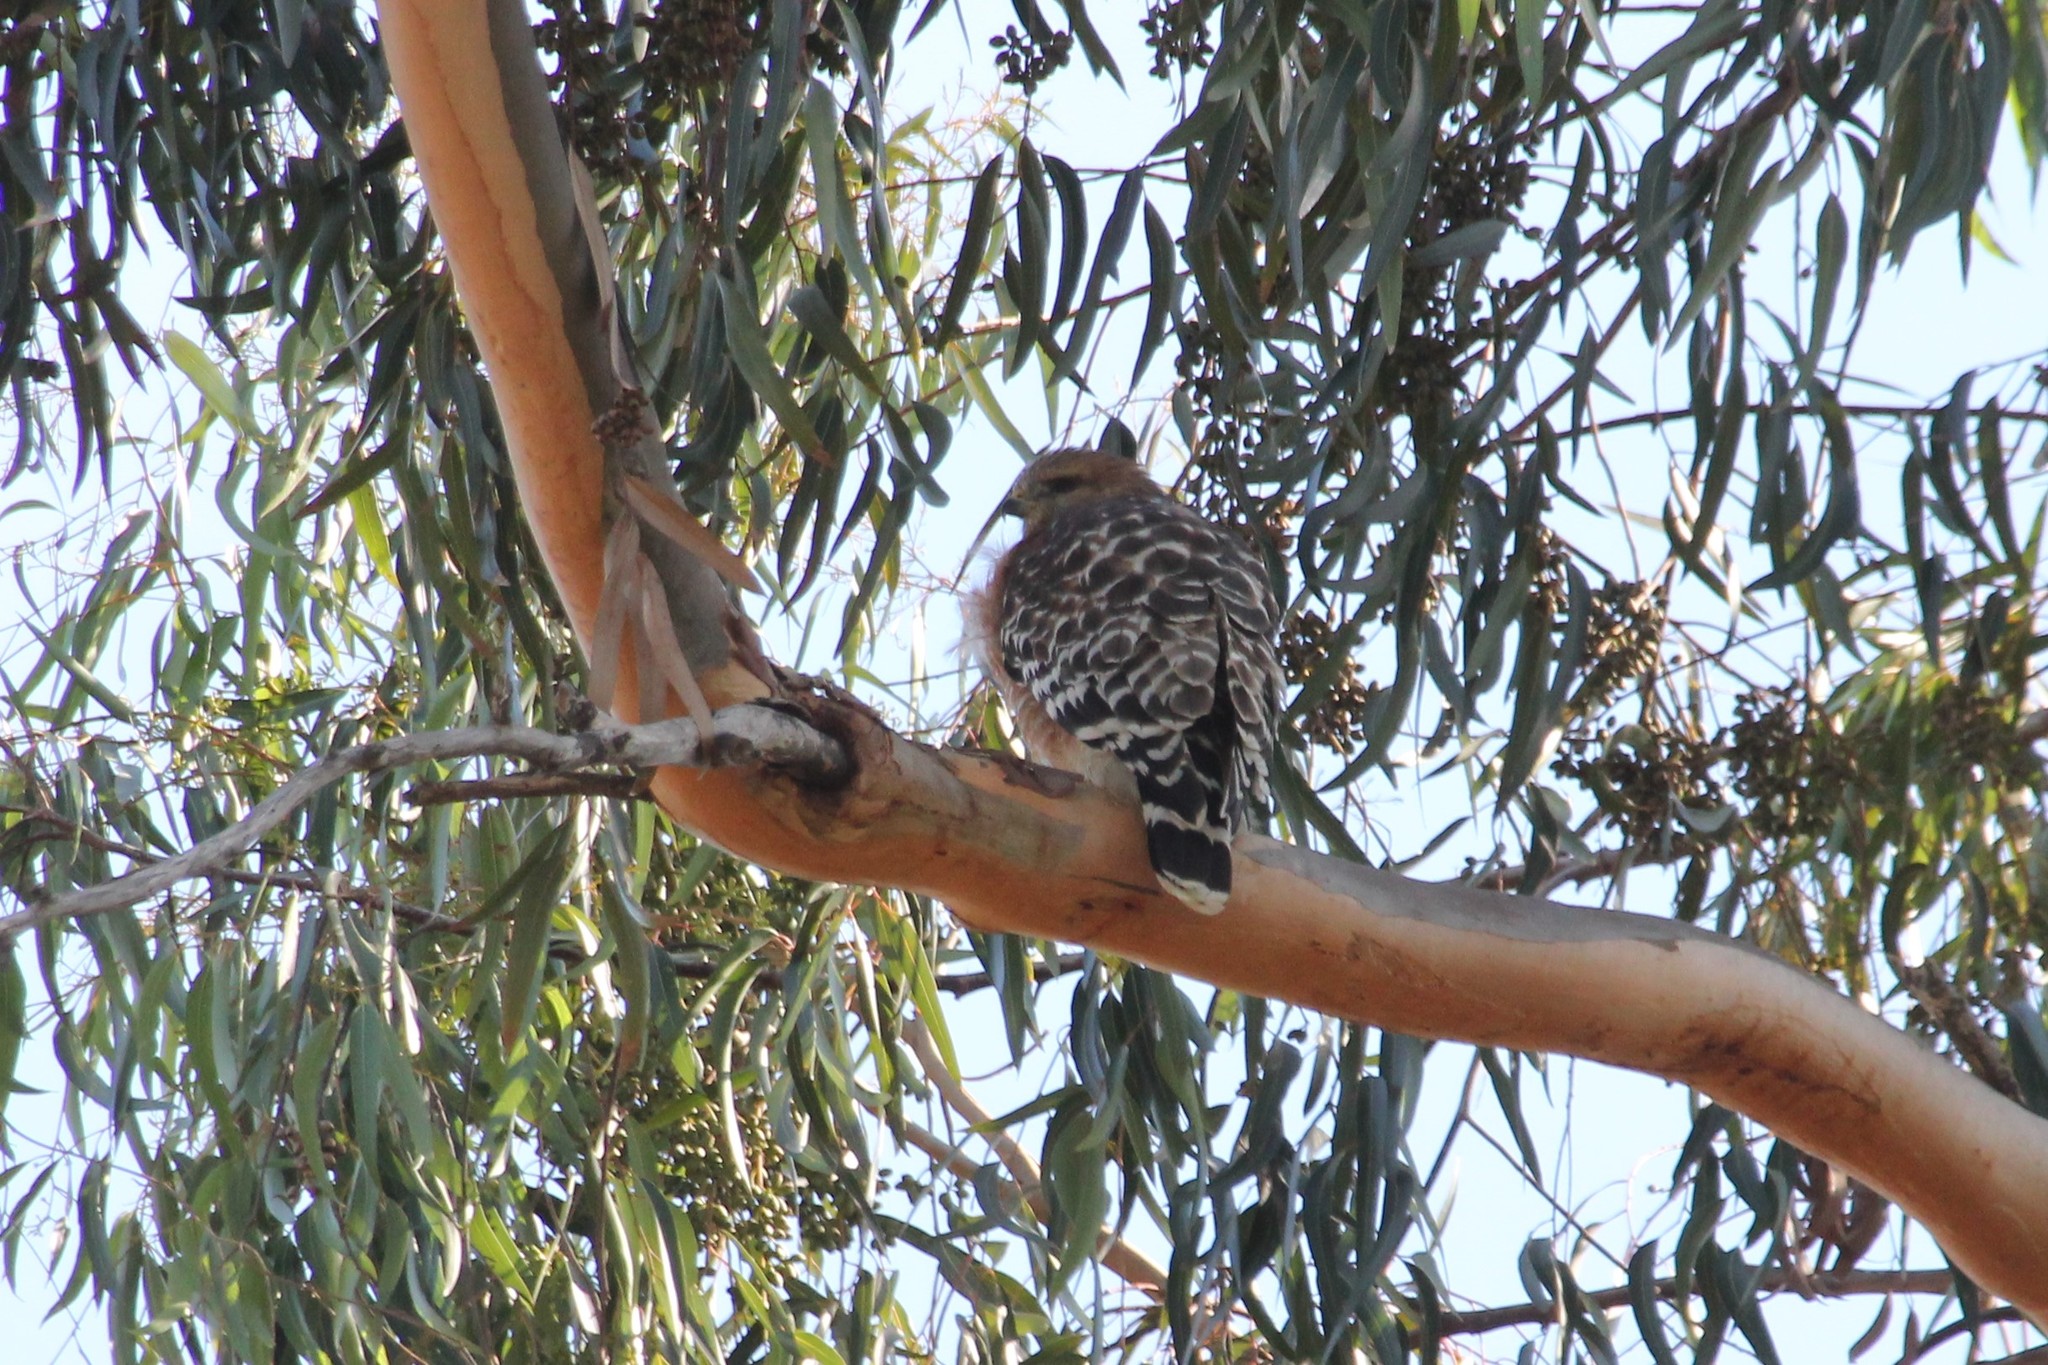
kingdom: Animalia
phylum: Chordata
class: Aves
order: Accipitriformes
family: Accipitridae
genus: Buteo
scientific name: Buteo lineatus
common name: Red-shouldered hawk
